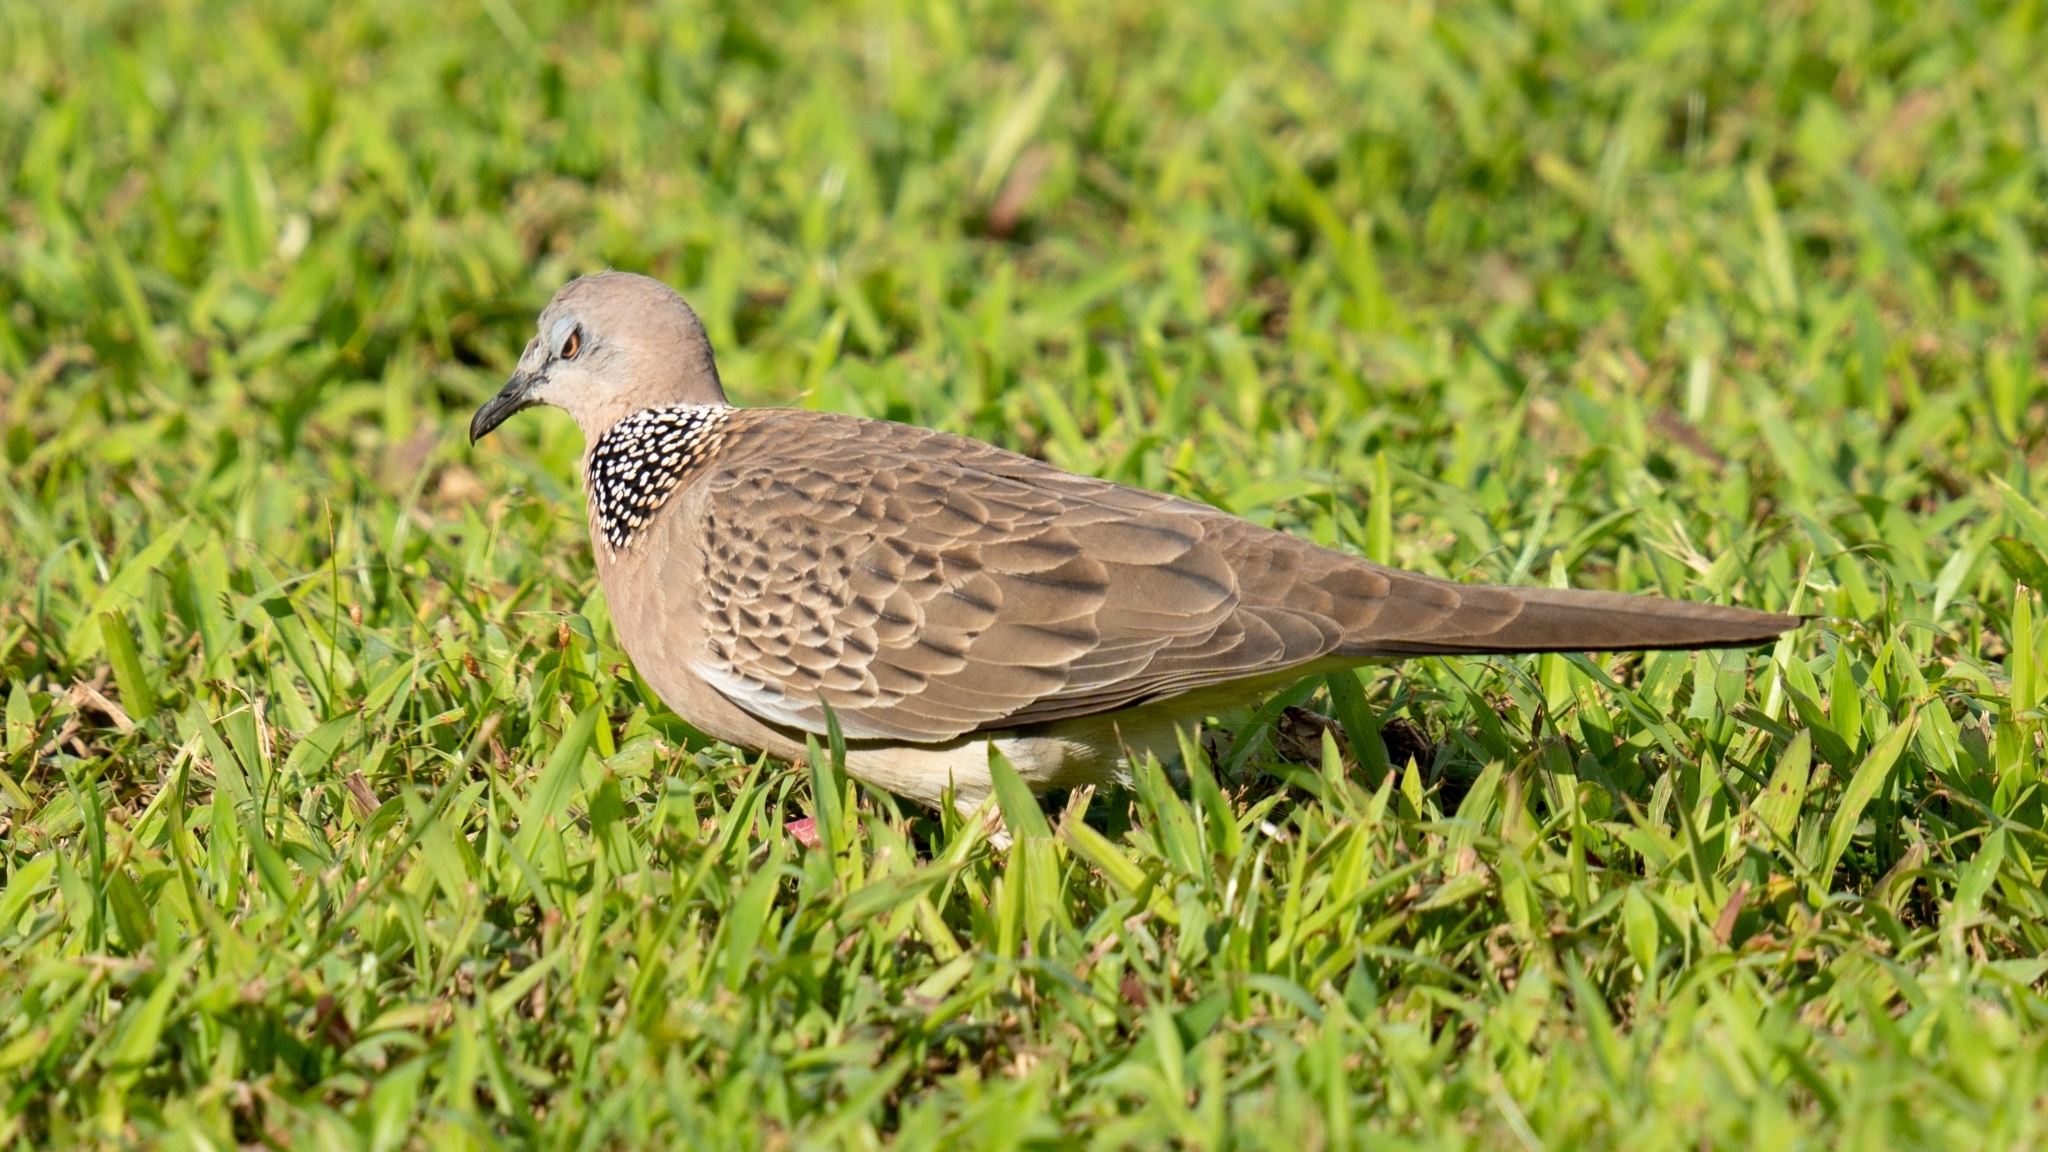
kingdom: Animalia
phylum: Chordata
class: Aves
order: Columbiformes
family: Columbidae
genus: Spilopelia
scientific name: Spilopelia chinensis
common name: Spotted dove
